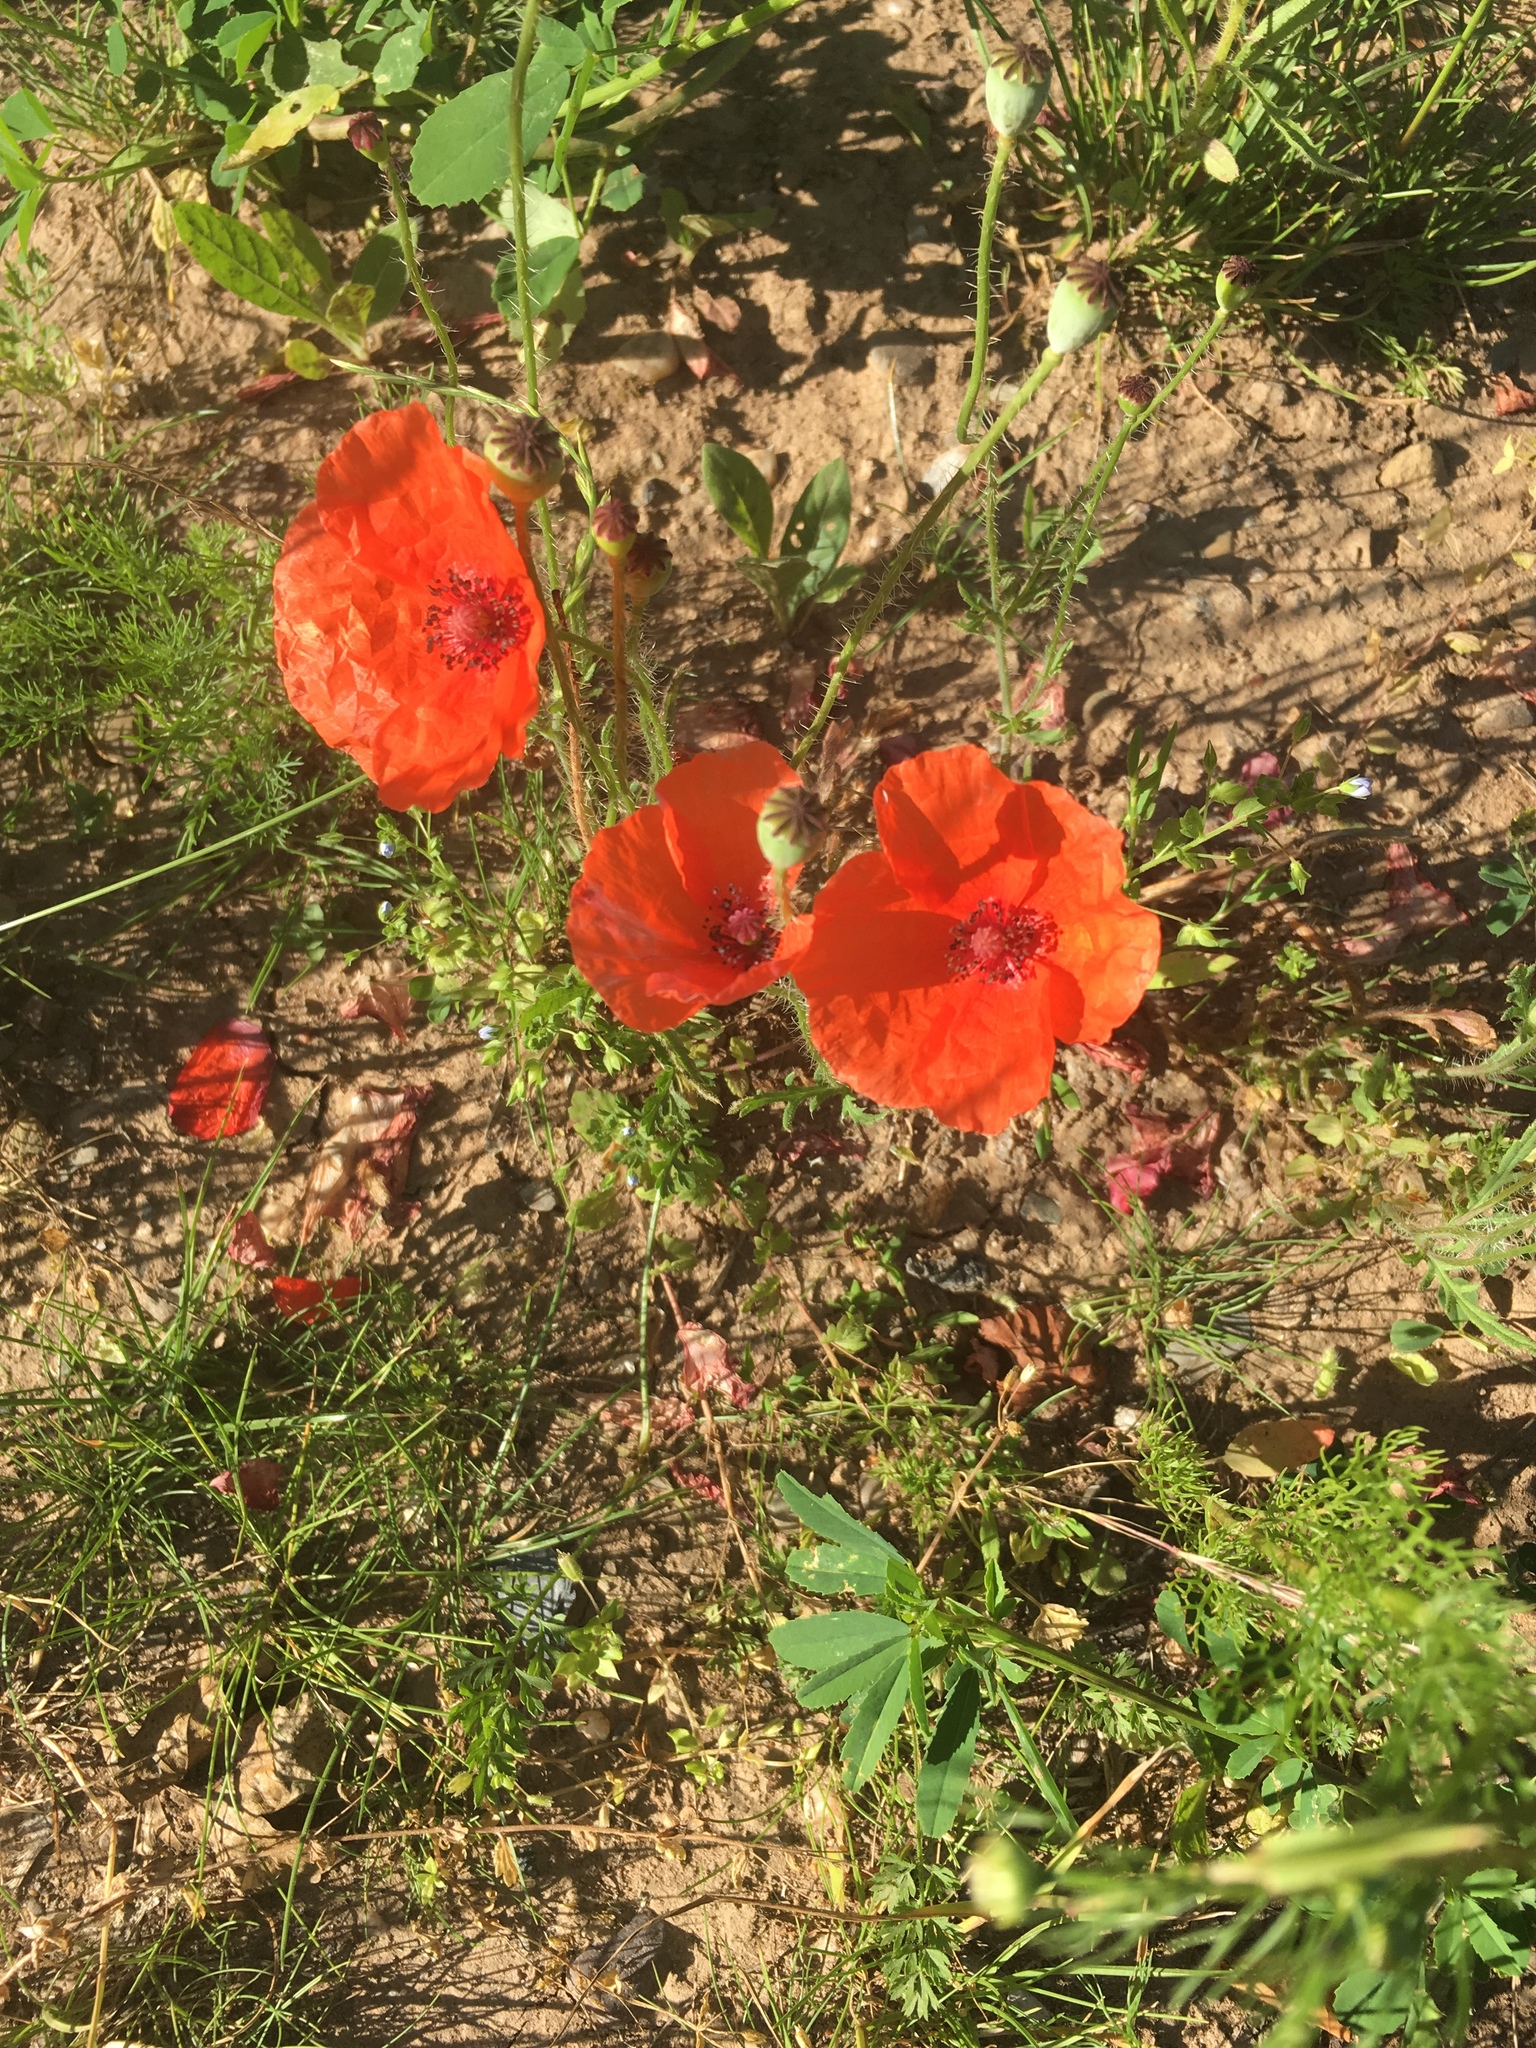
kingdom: Plantae
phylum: Tracheophyta
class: Magnoliopsida
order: Ranunculales
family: Papaveraceae
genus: Papaver
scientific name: Papaver rhoeas
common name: Corn poppy
